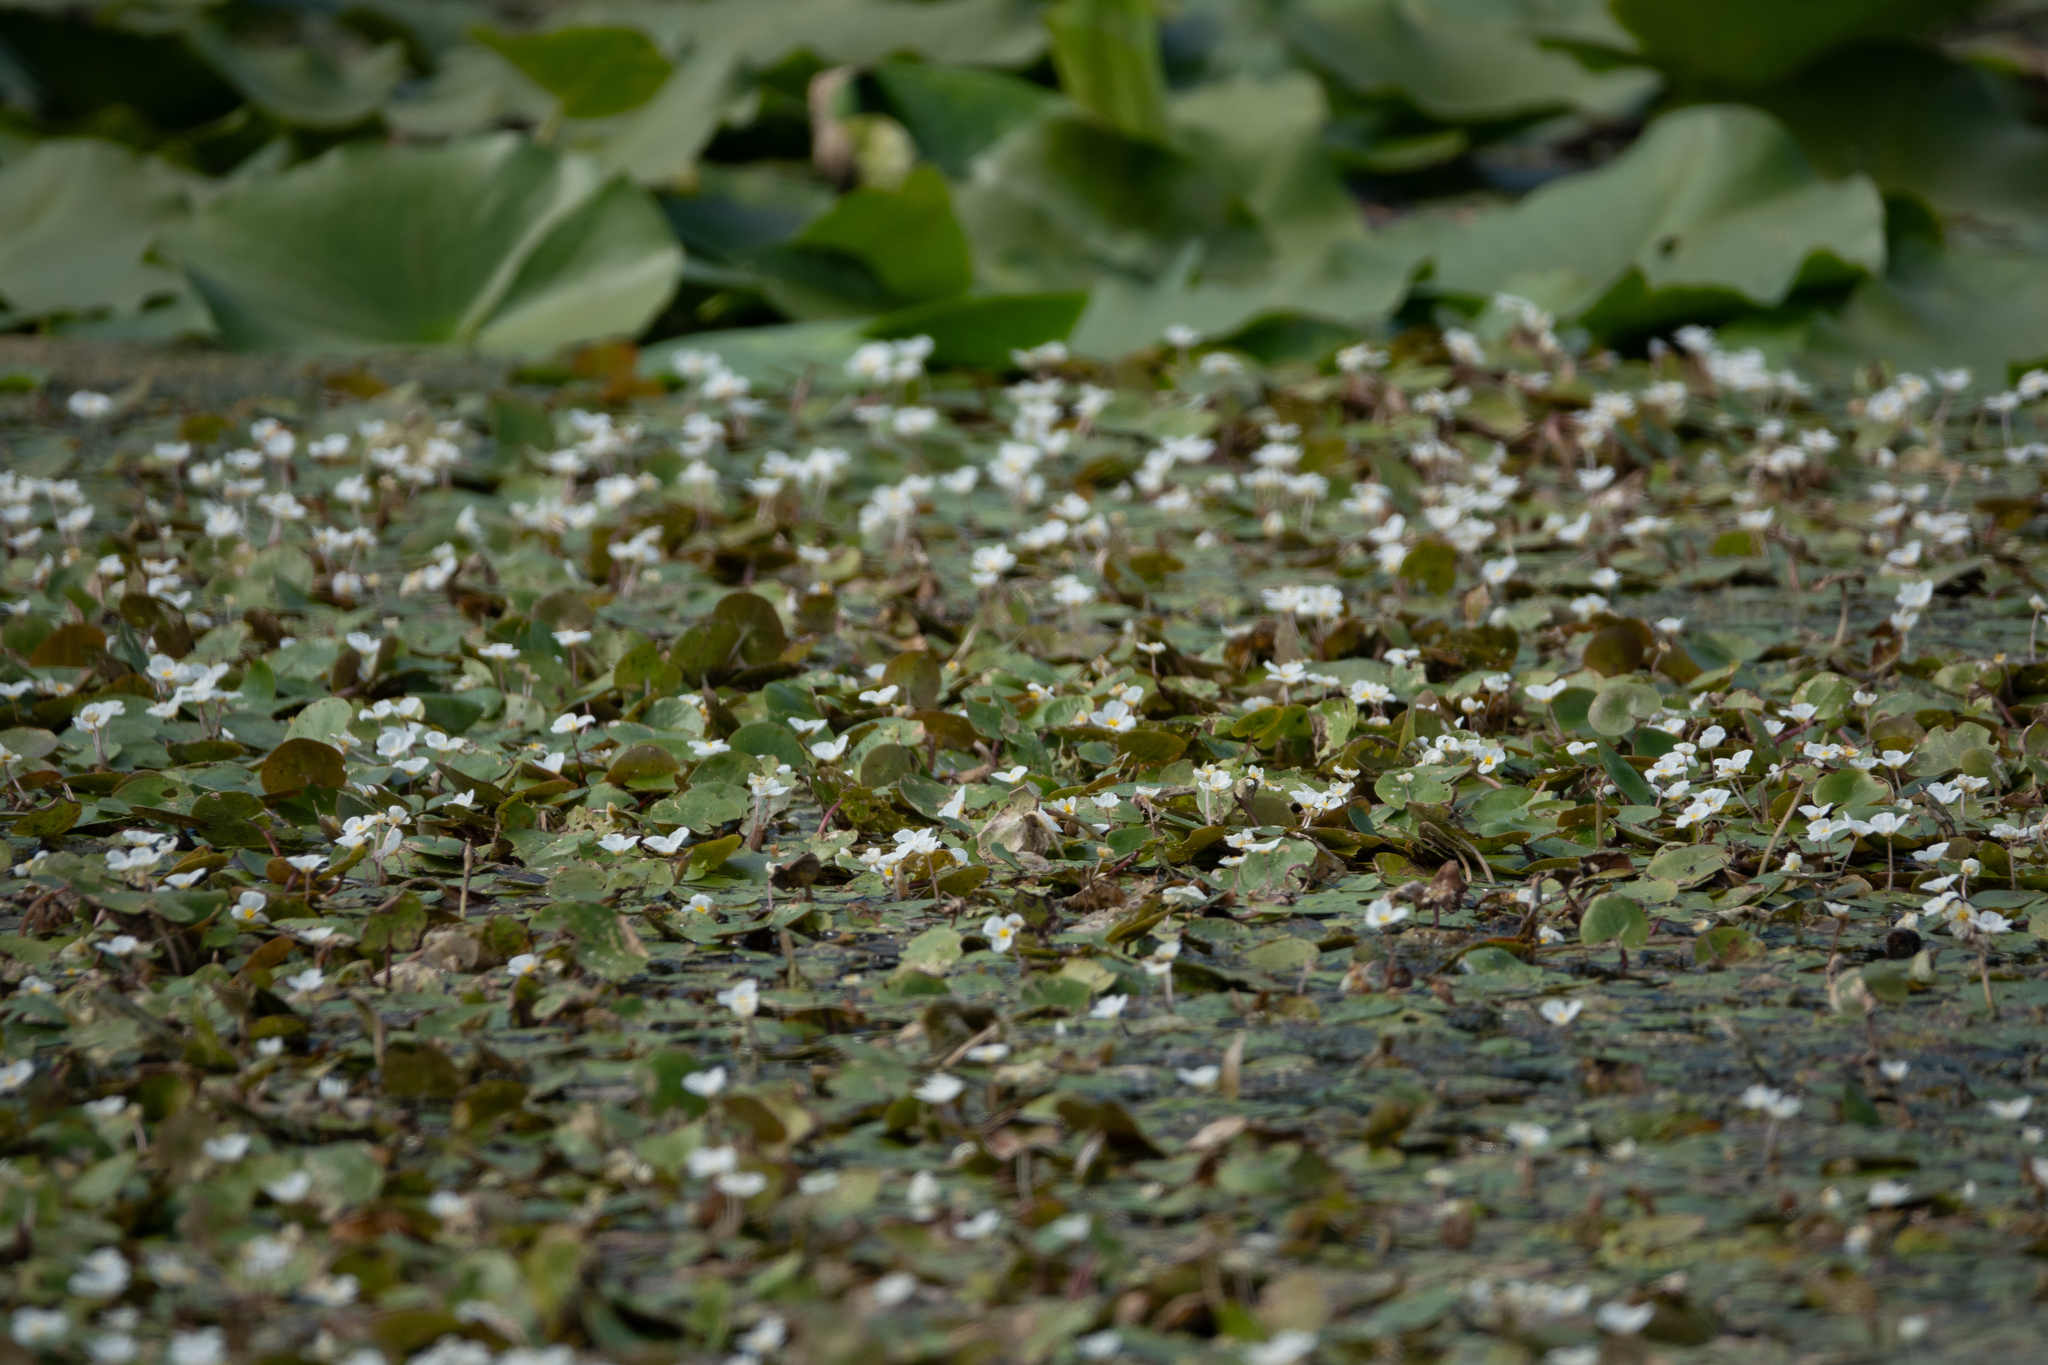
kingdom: Plantae
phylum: Tracheophyta
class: Liliopsida
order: Alismatales
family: Hydrocharitaceae
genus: Hydrocharis
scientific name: Hydrocharis morsus-ranae
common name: Frogbit
